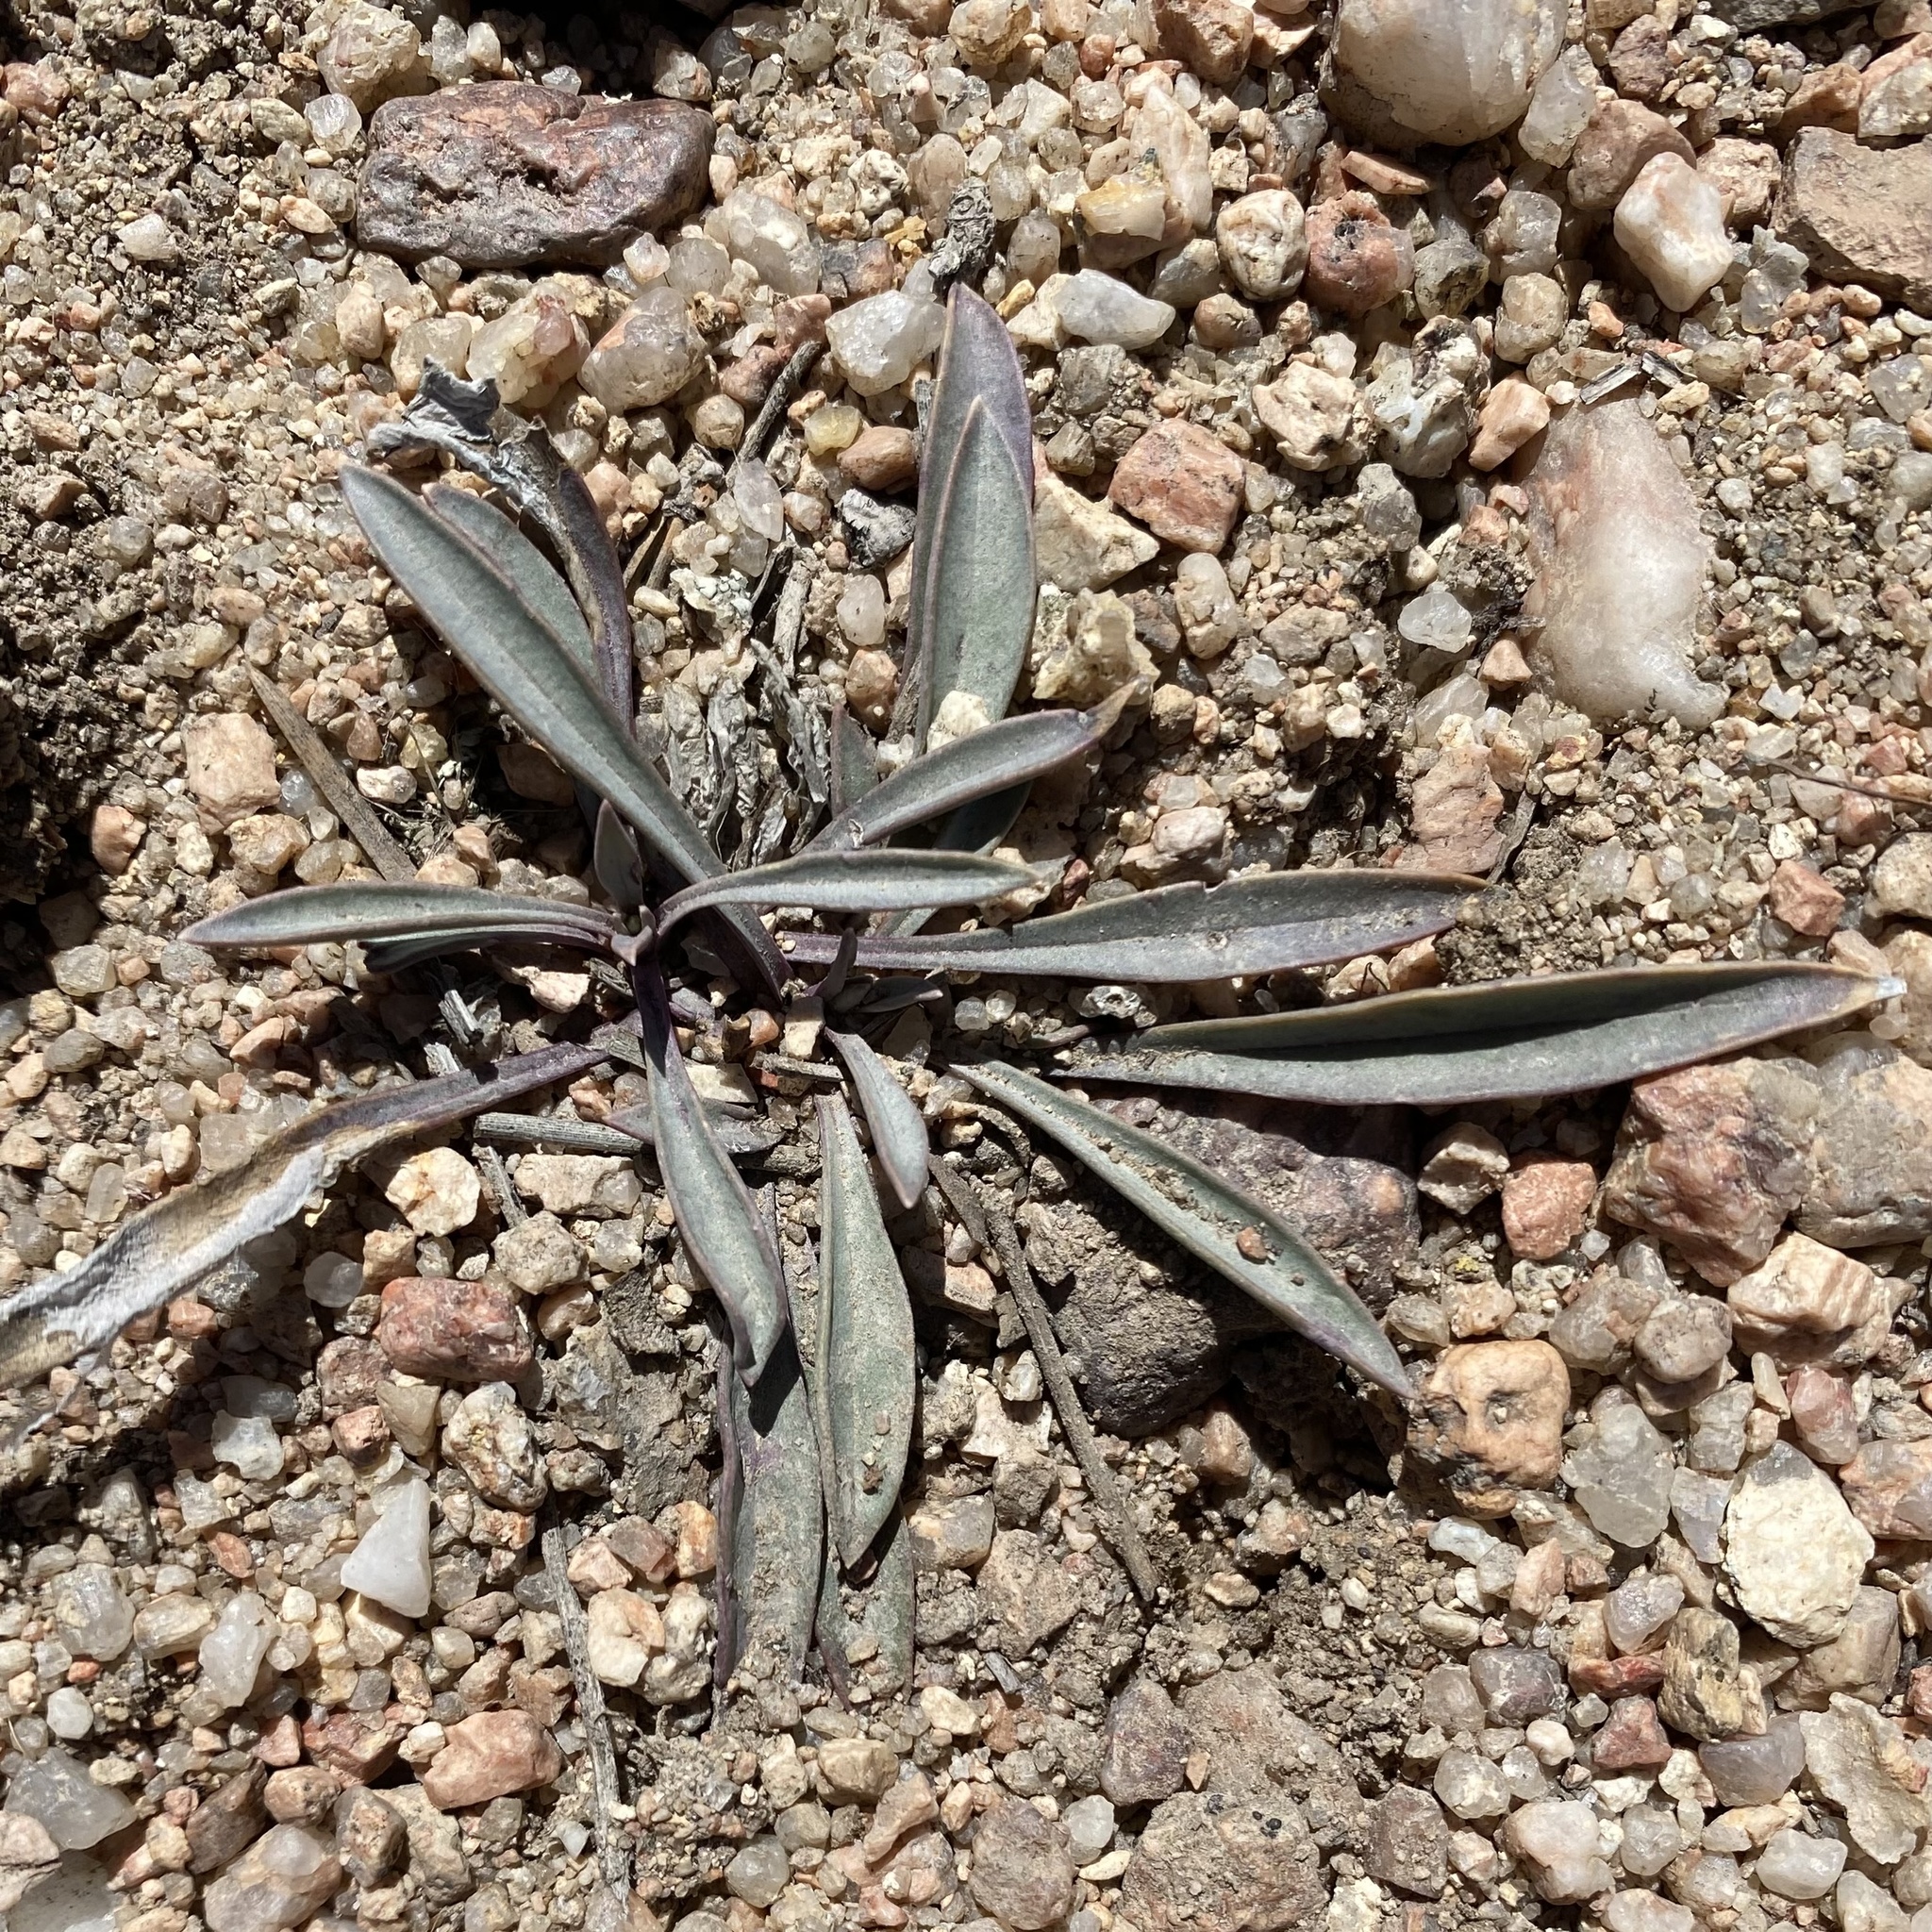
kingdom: Plantae
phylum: Tracheophyta
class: Magnoliopsida
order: Lamiales
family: Plantaginaceae
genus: Penstemon
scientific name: Penstemon secundiflorus
